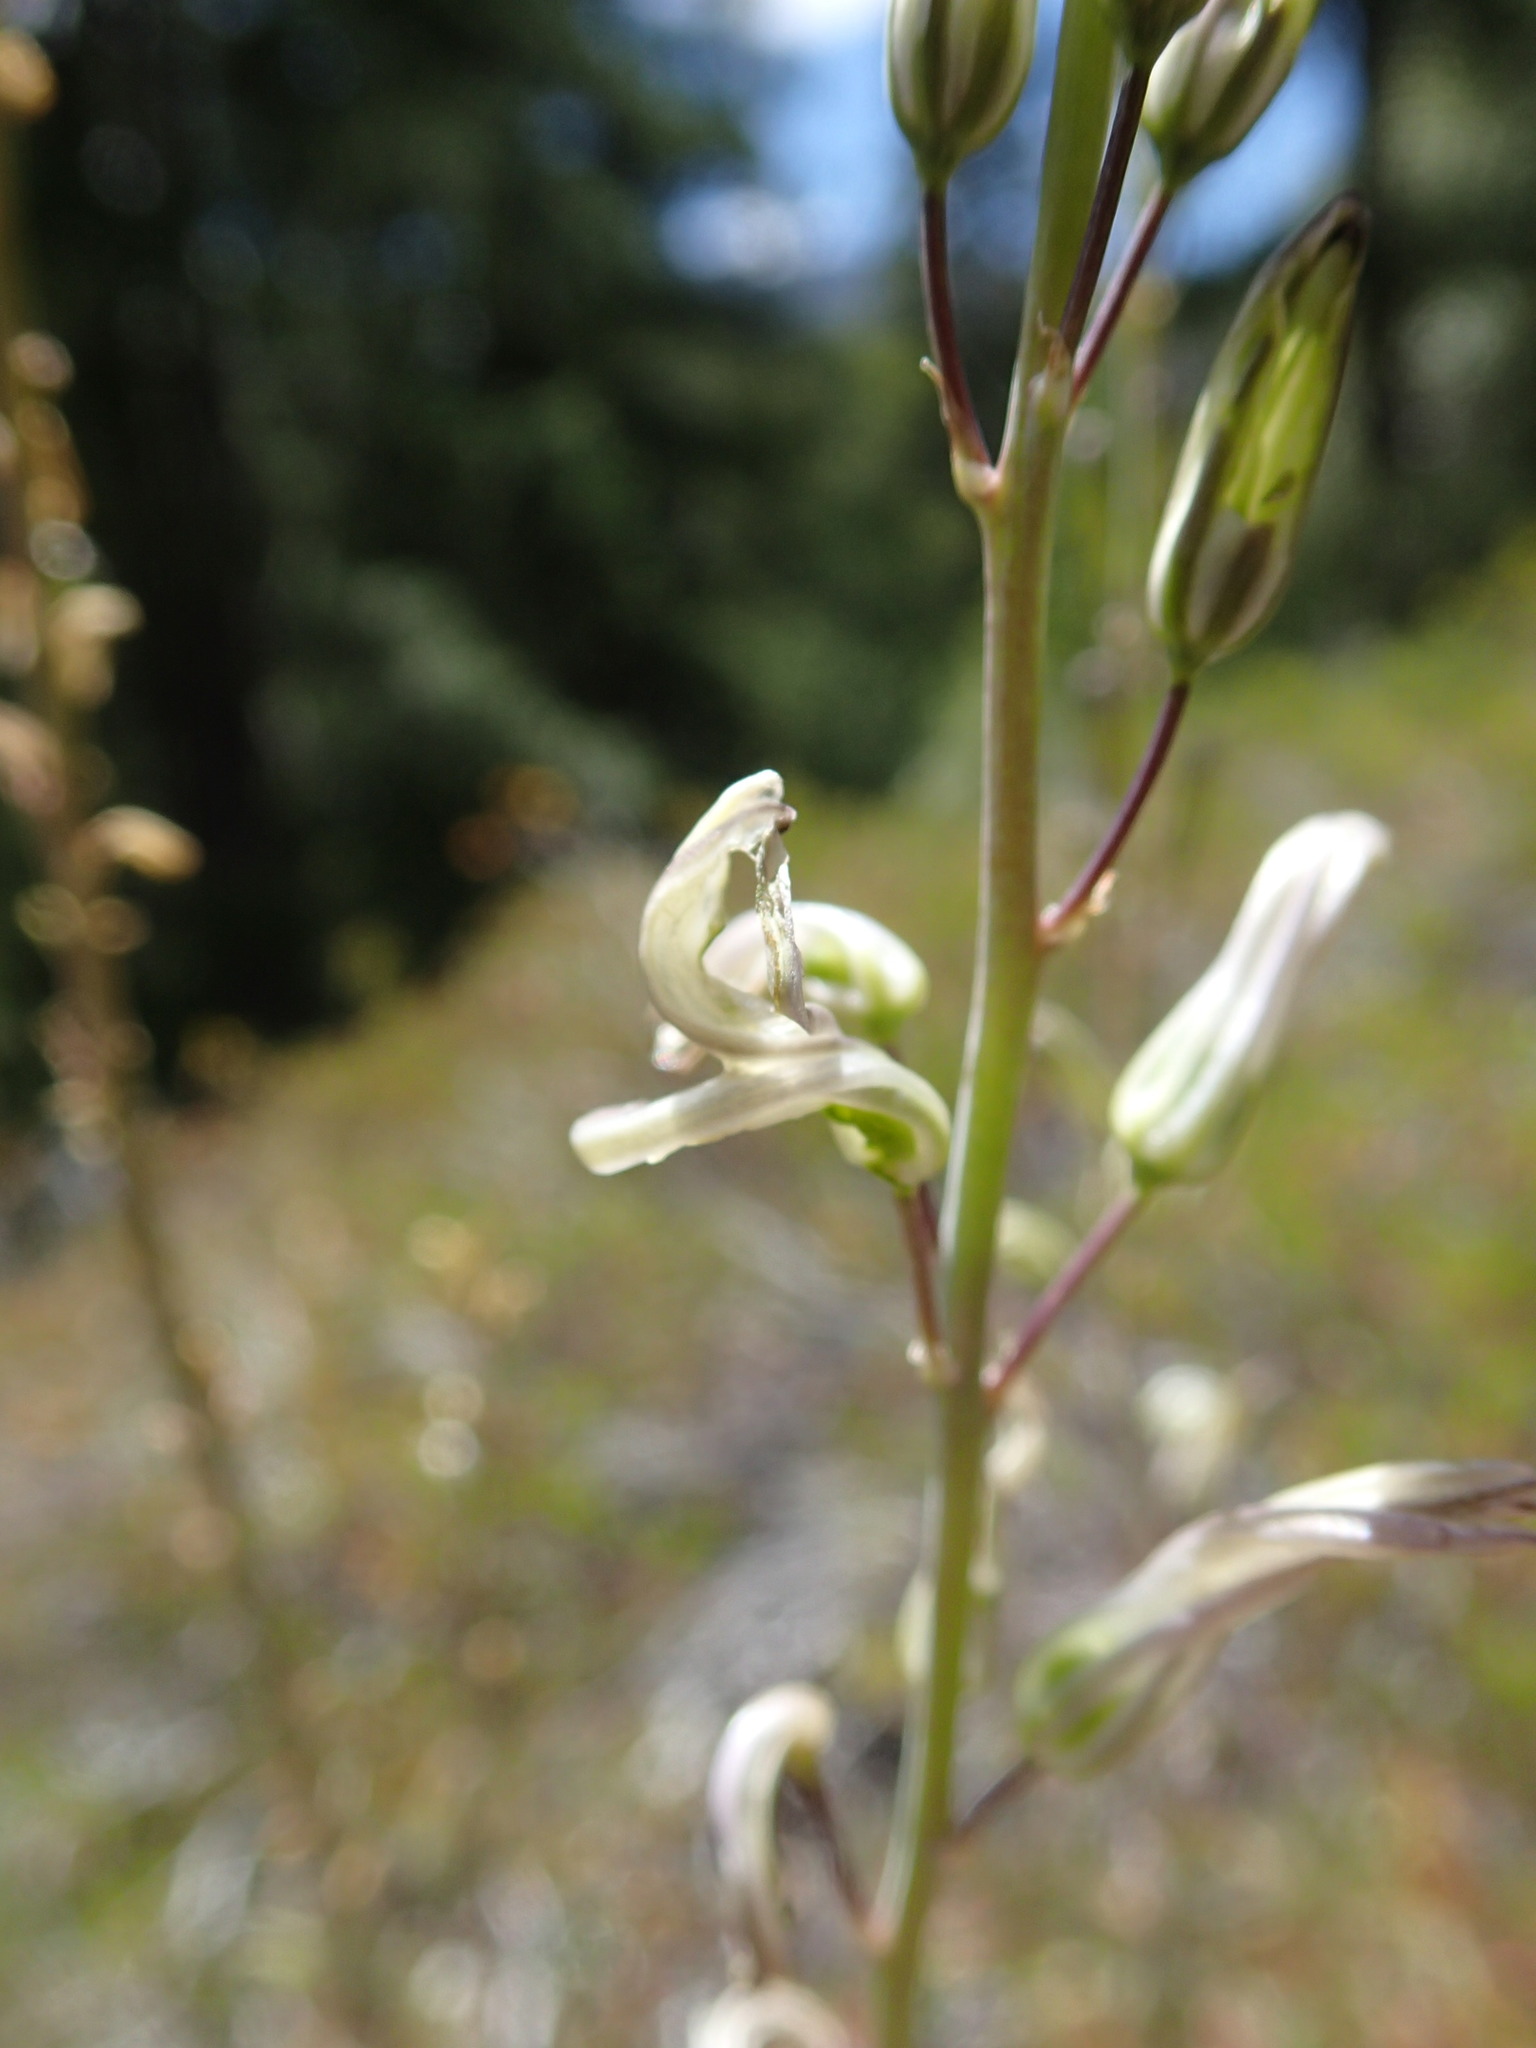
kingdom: Plantae
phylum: Tracheophyta
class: Liliopsida
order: Asparagales
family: Asparagaceae
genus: Chlorogalum
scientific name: Chlorogalum pomeridianum
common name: Amole
